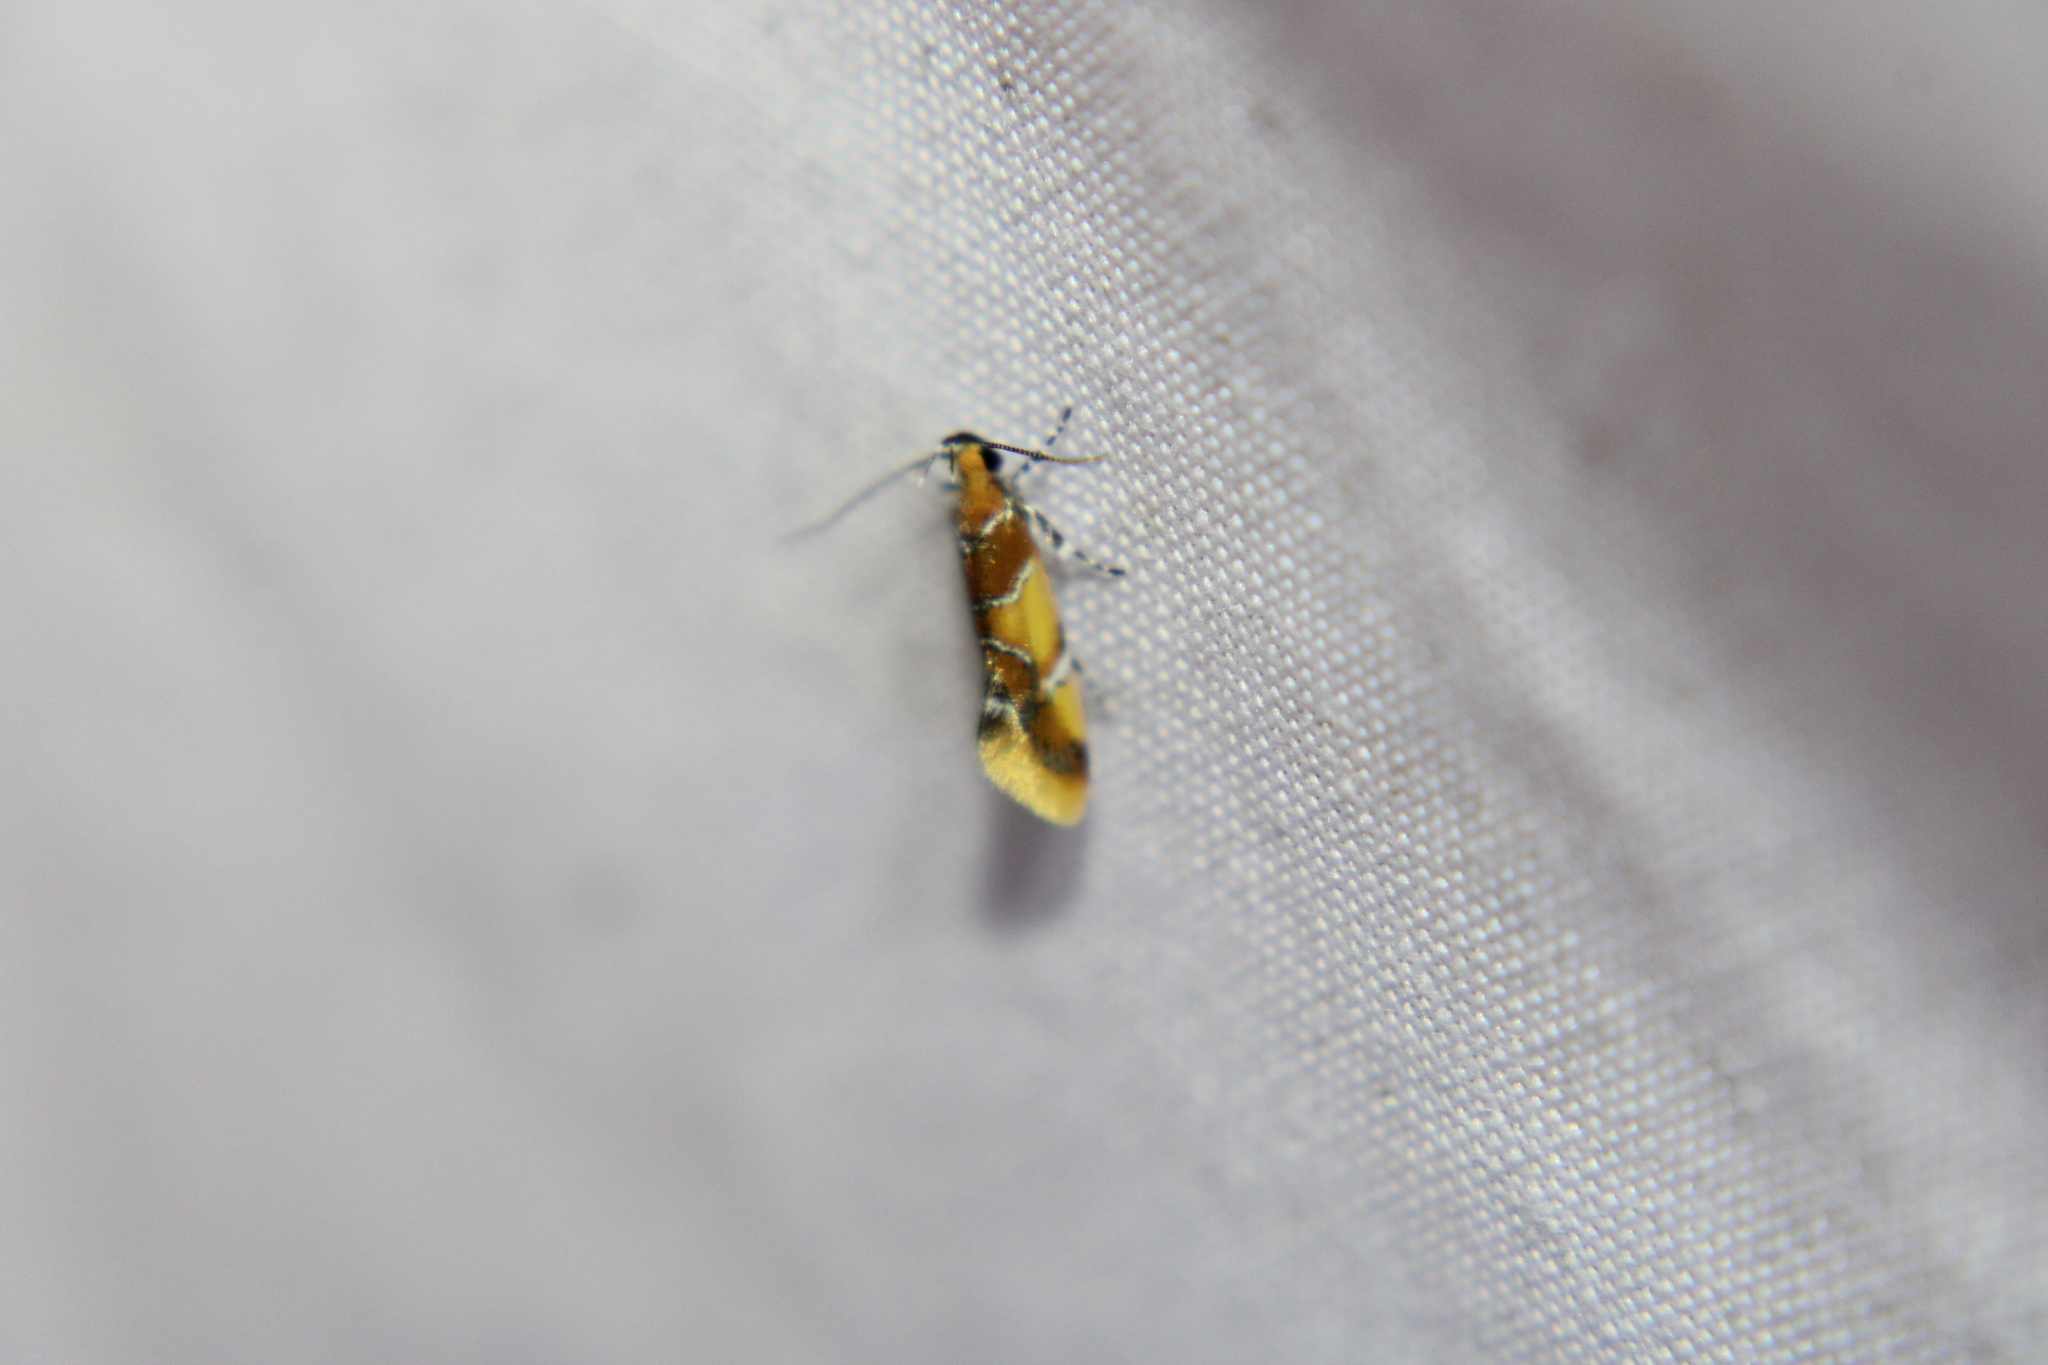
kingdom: Animalia
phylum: Arthropoda
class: Insecta
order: Lepidoptera
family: Oecophoridae
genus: Callima
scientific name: Callima argenticinctella
